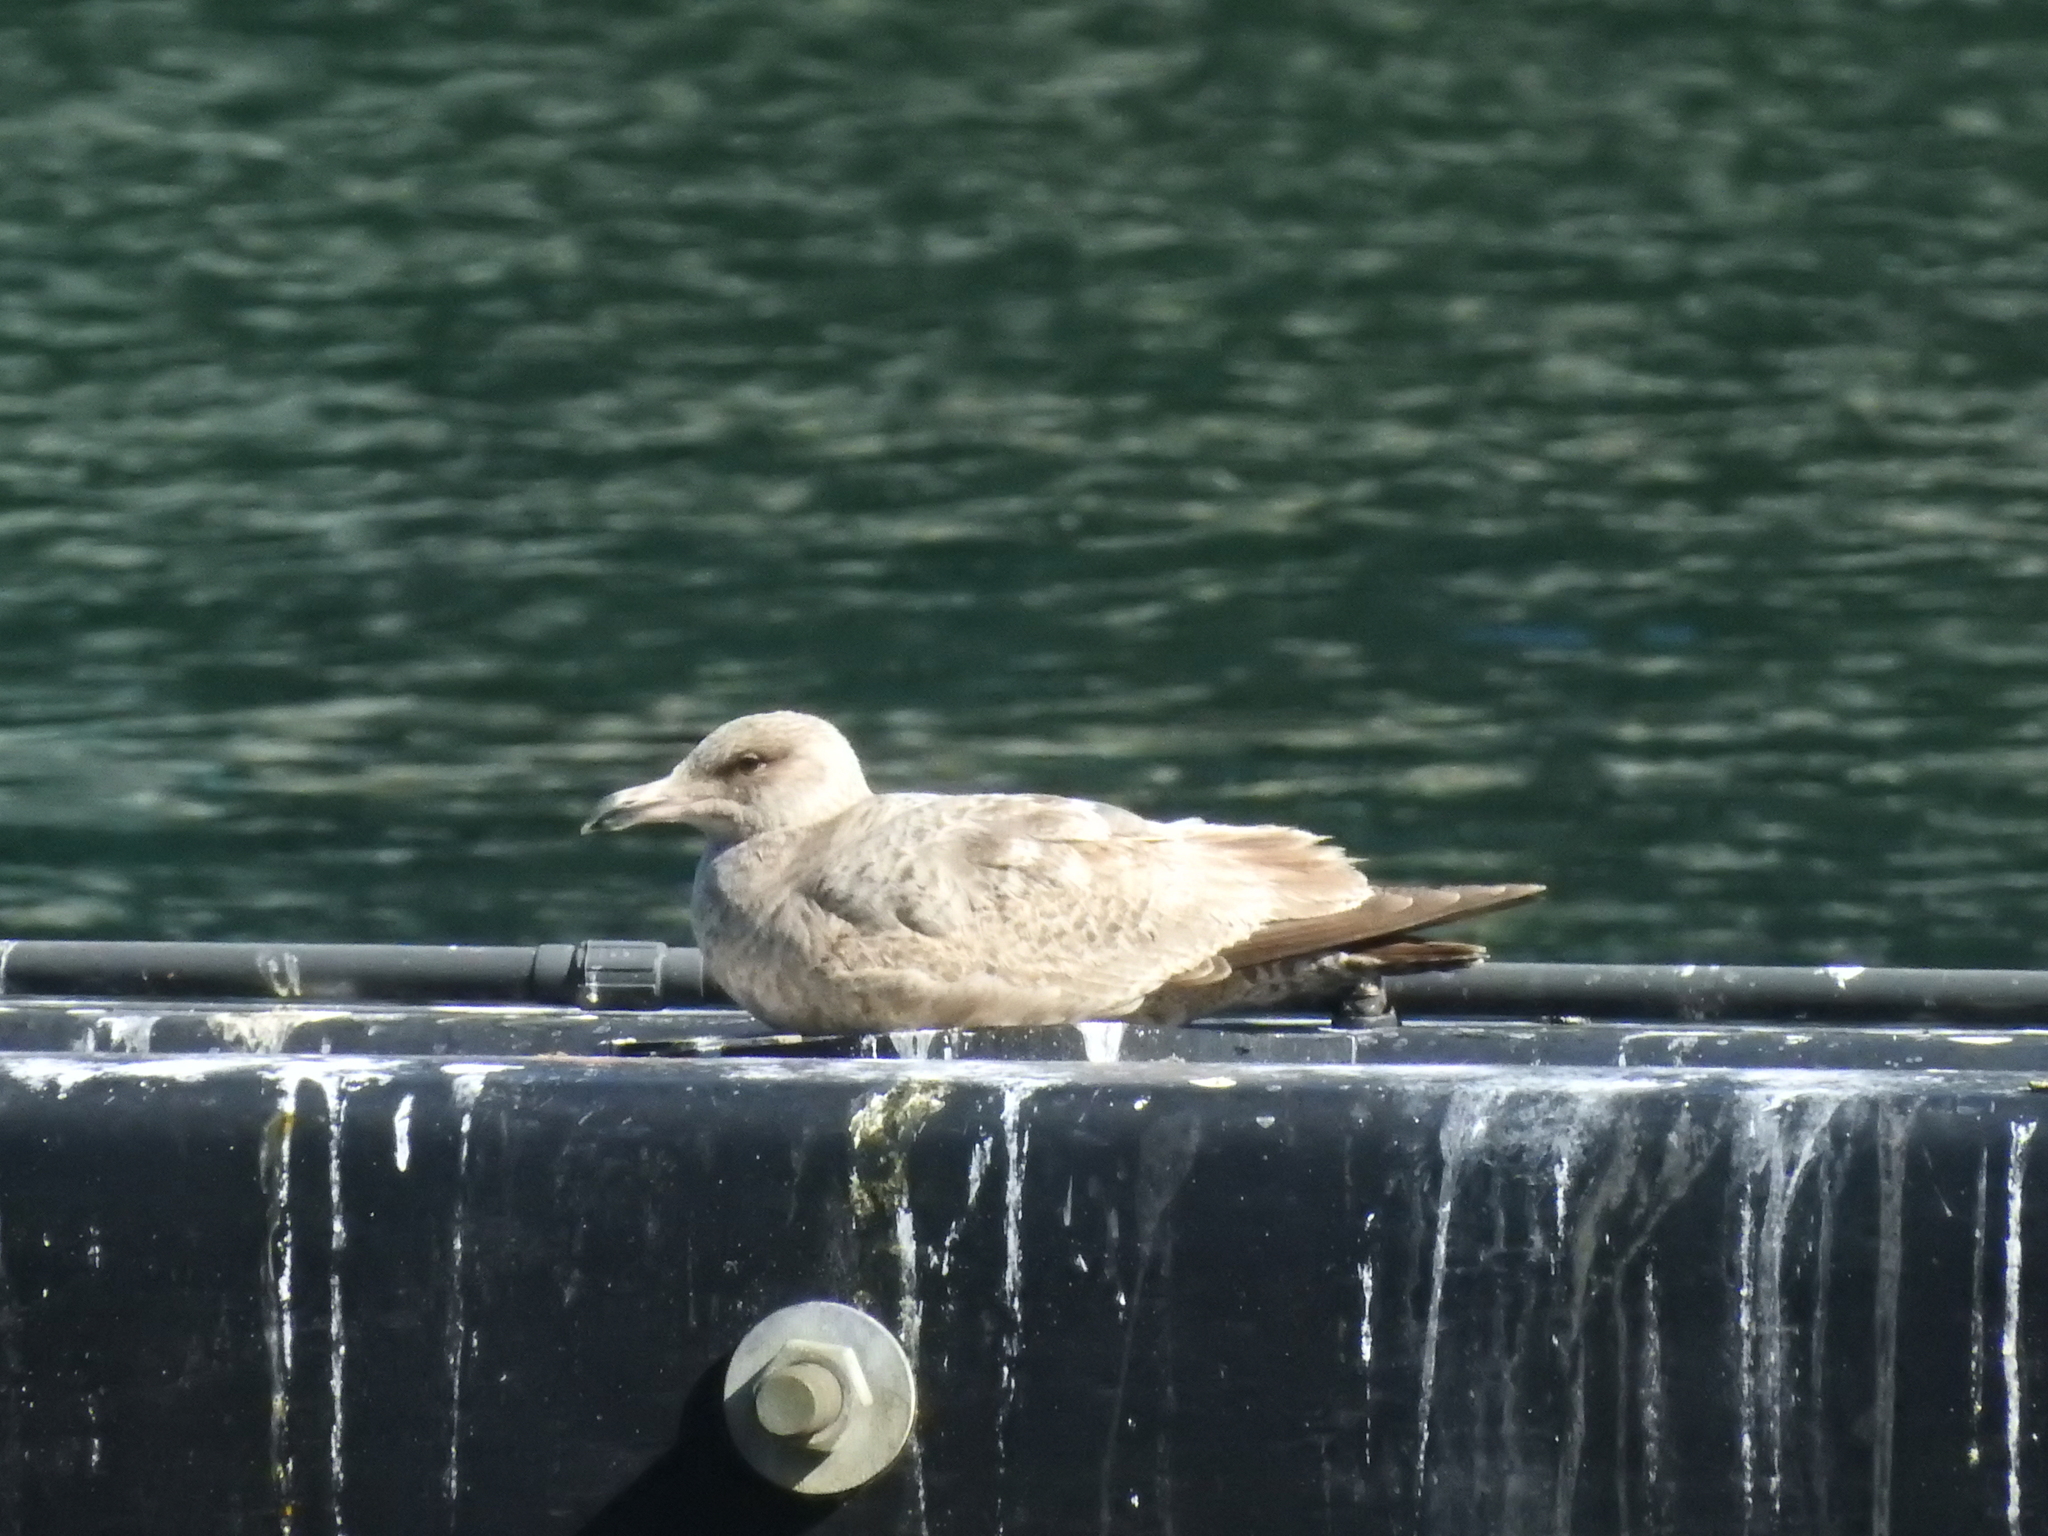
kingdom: Animalia
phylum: Chordata
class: Aves
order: Charadriiformes
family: Laridae
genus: Larus
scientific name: Larus argentatus
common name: Herring gull
